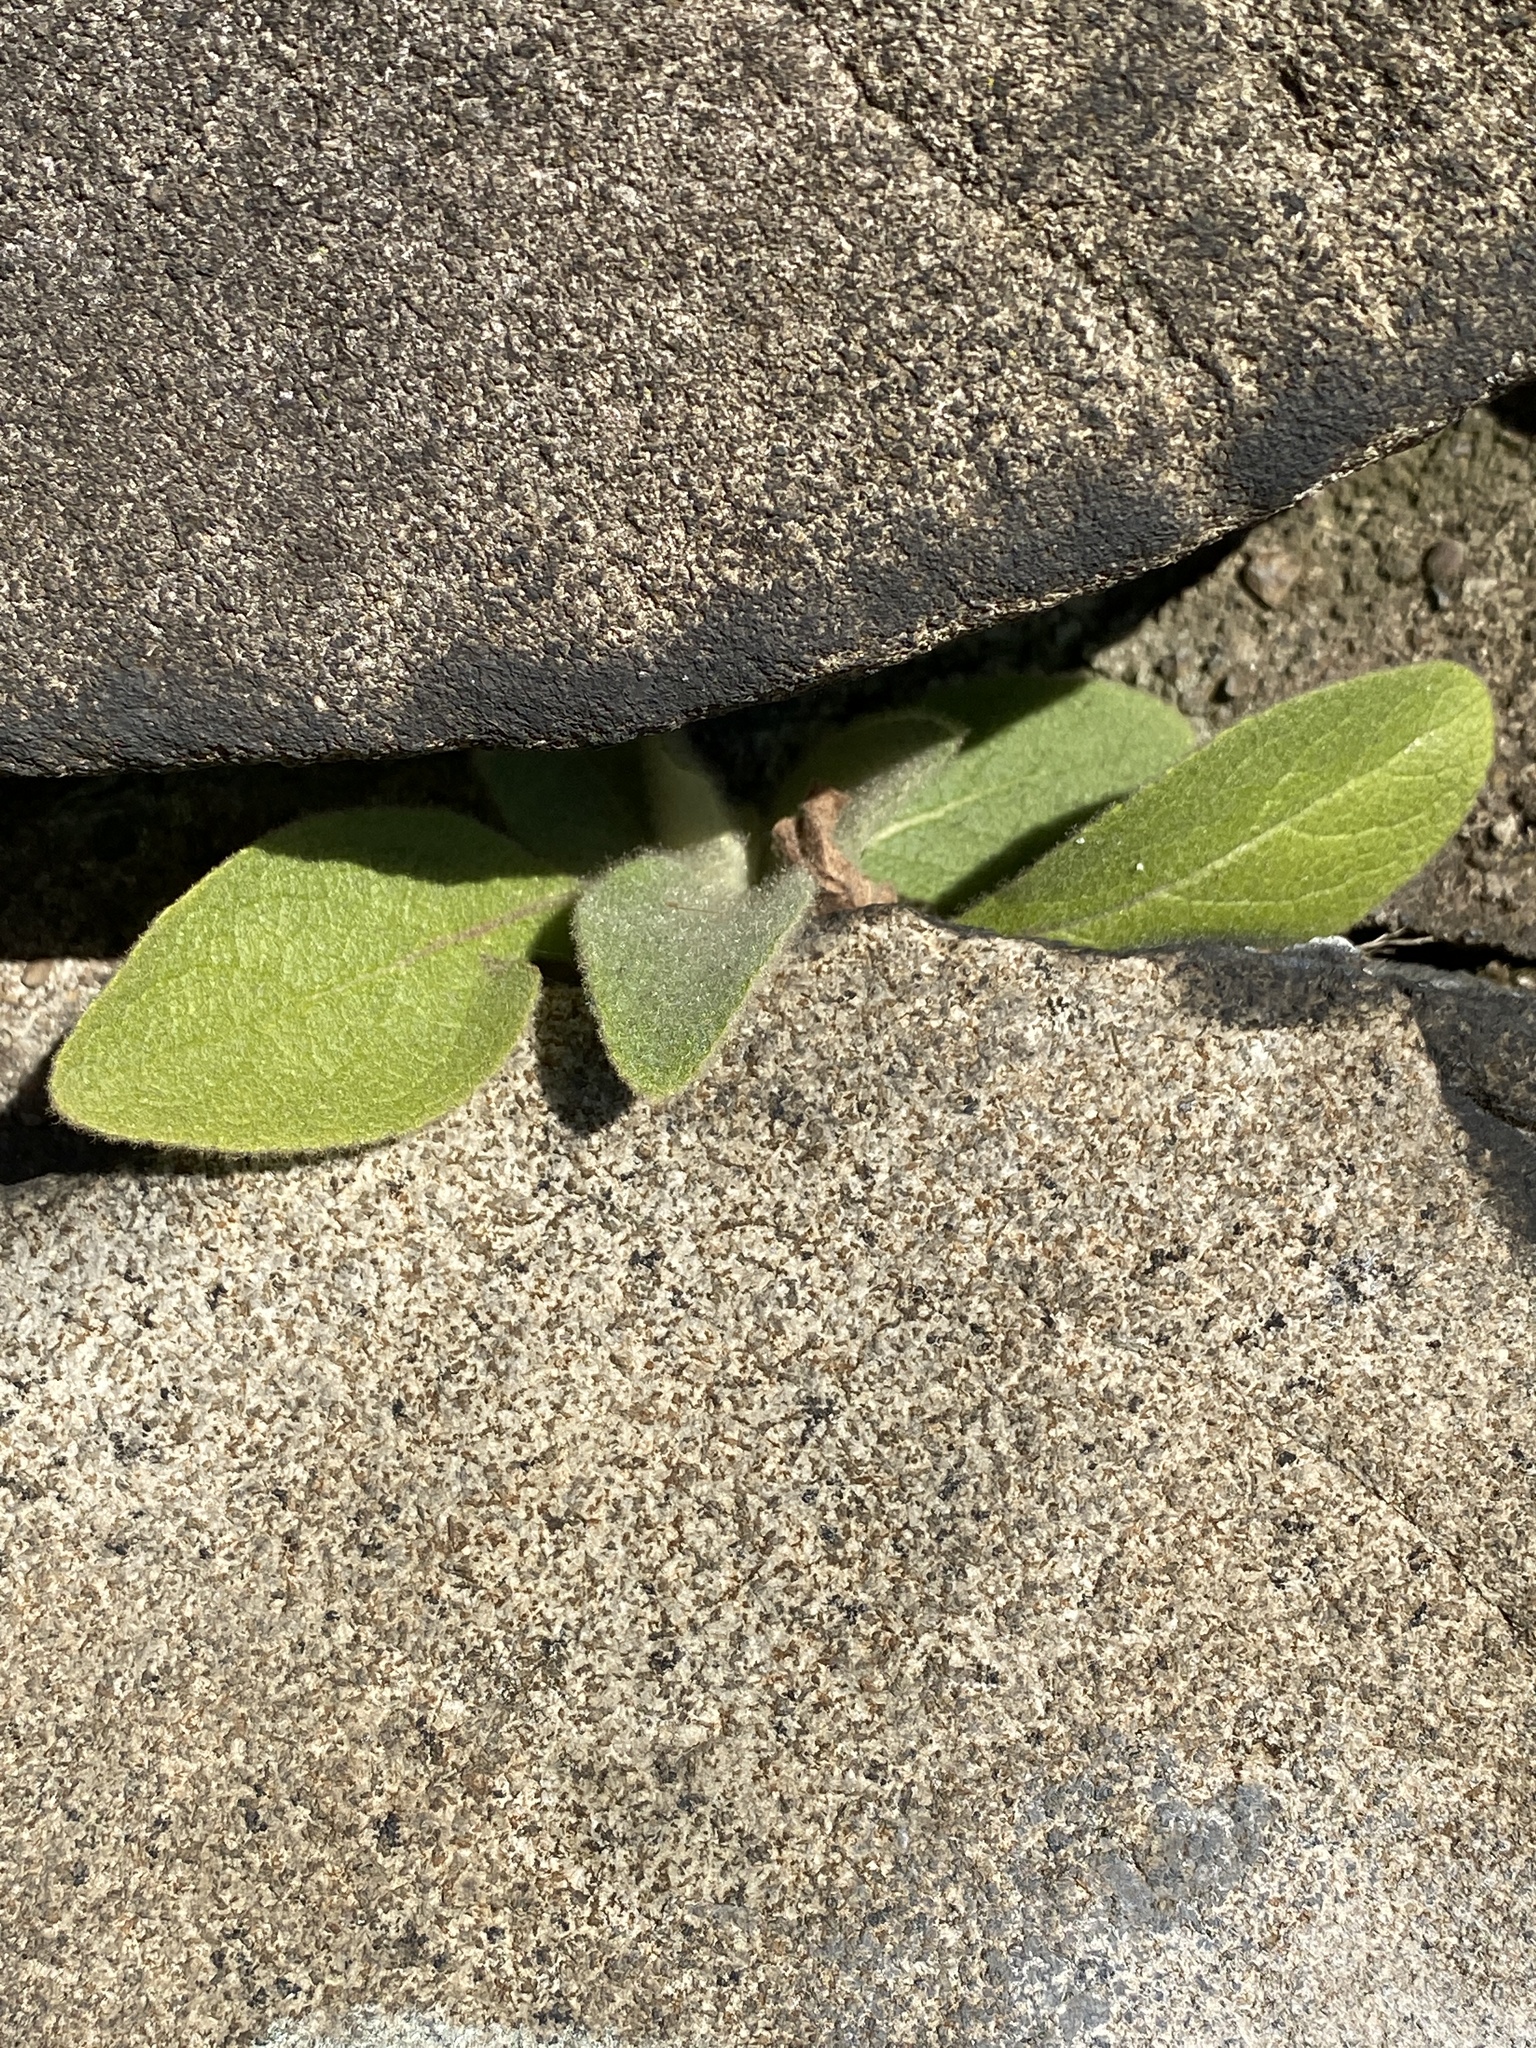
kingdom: Plantae
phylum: Tracheophyta
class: Magnoliopsida
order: Lamiales
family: Scrophulariaceae
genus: Verbascum
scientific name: Verbascum thapsus
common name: Common mullein
